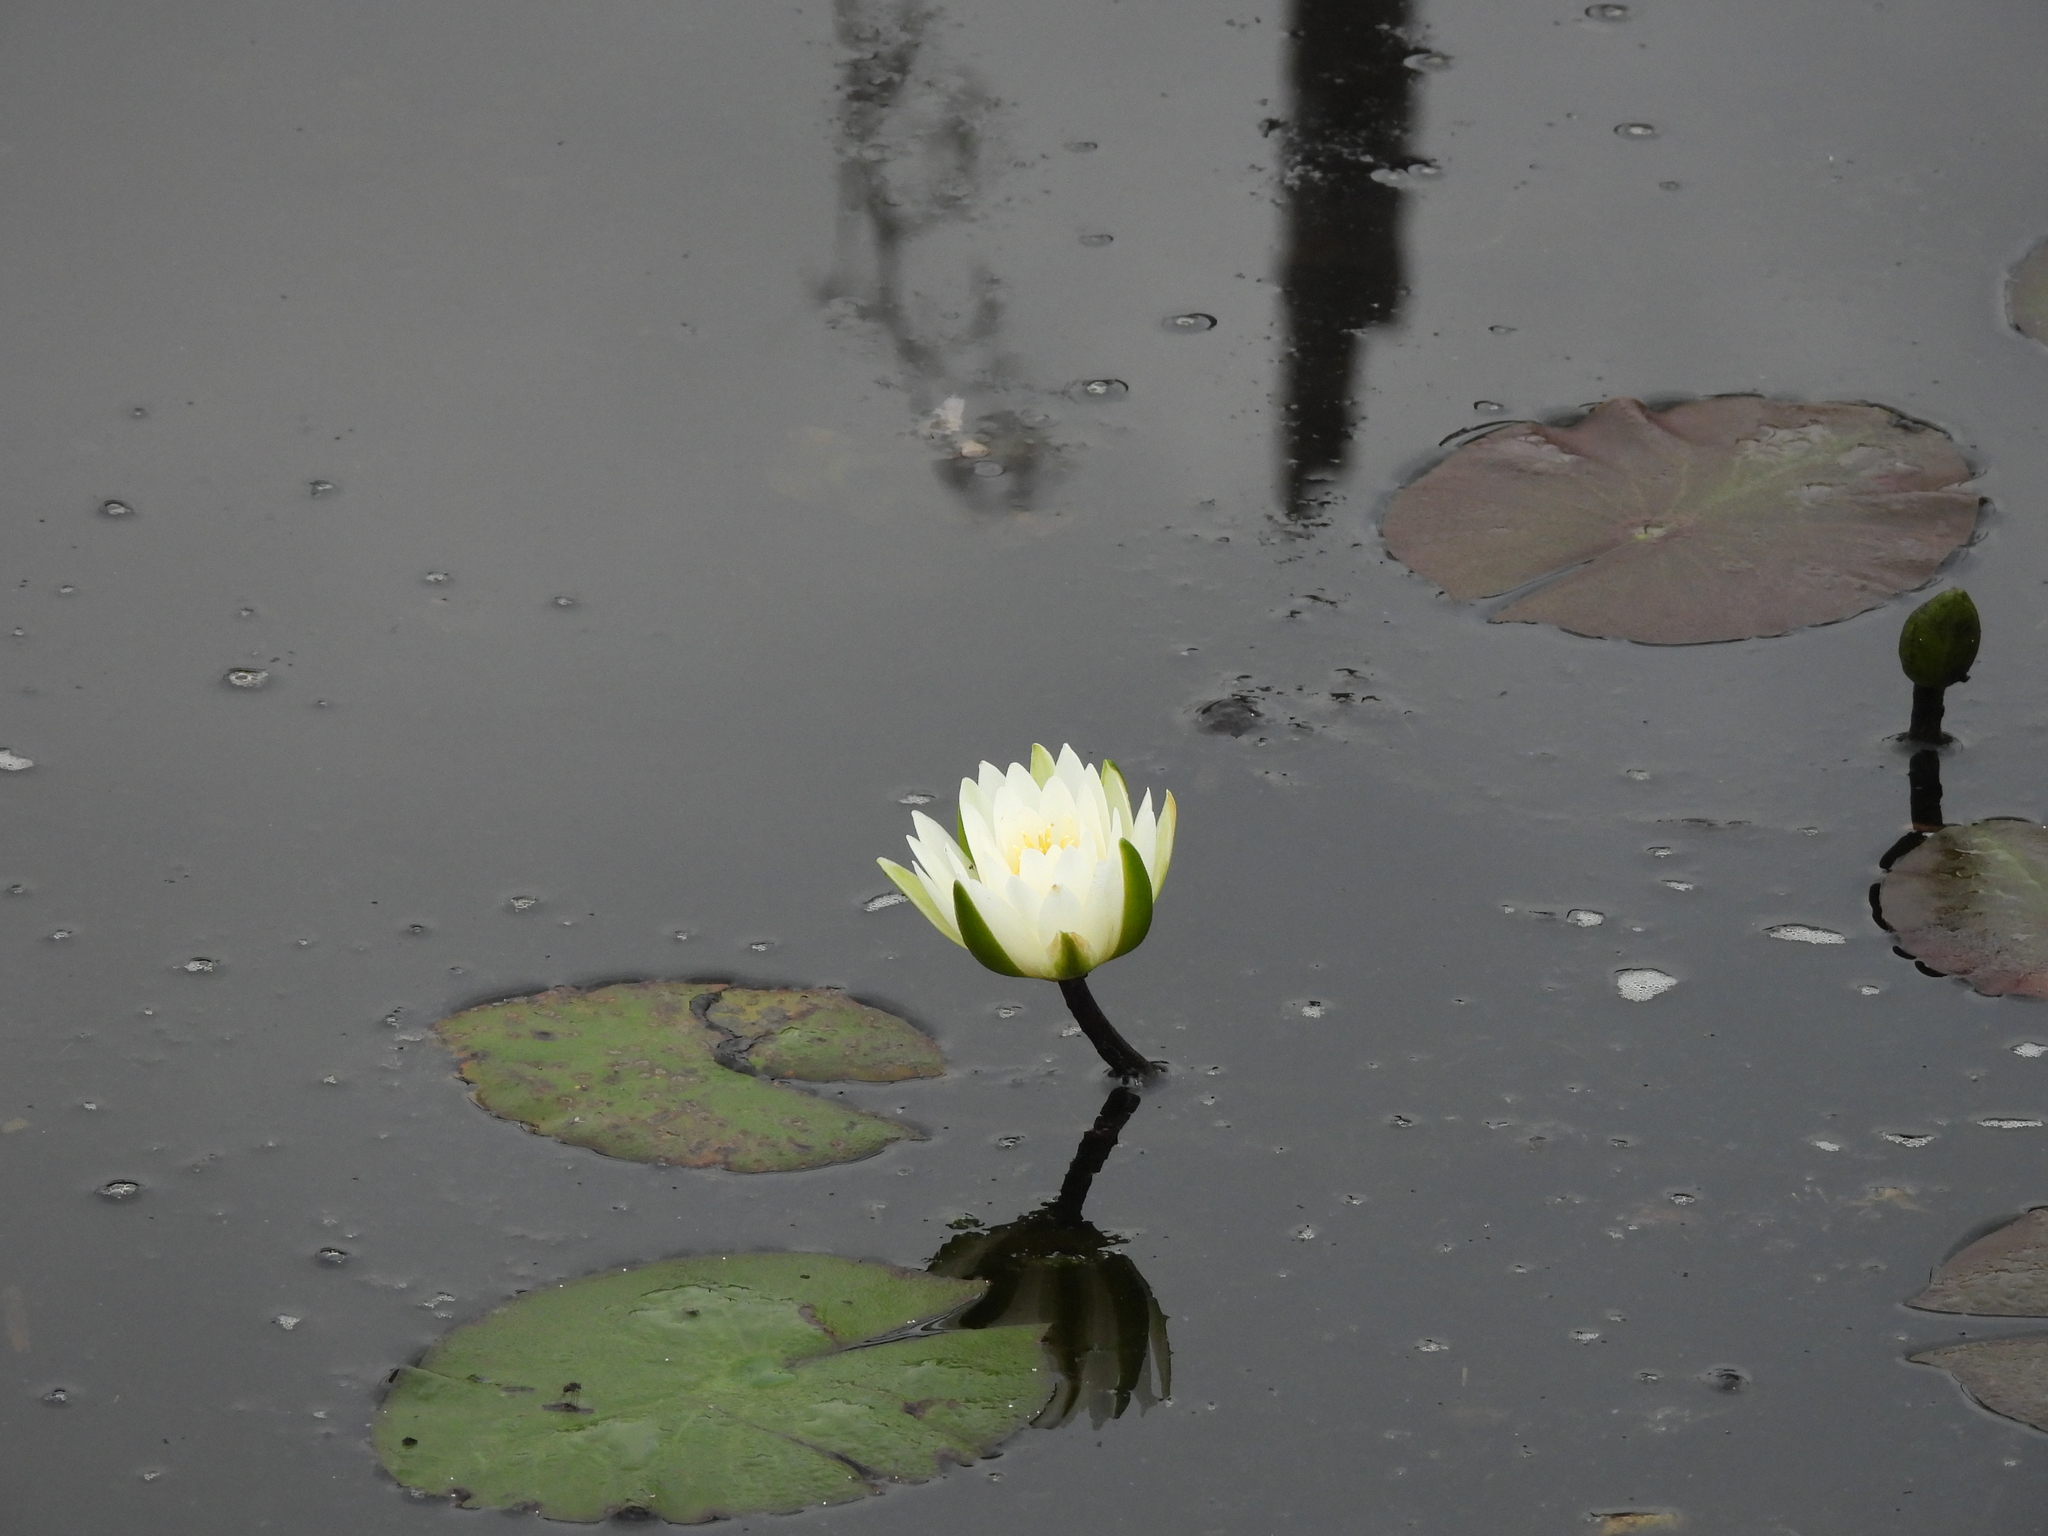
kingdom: Plantae
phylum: Tracheophyta
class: Magnoliopsida
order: Nymphaeales
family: Nymphaeaceae
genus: Nymphaea
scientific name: Nymphaea odorata
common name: Fragrant water-lily
